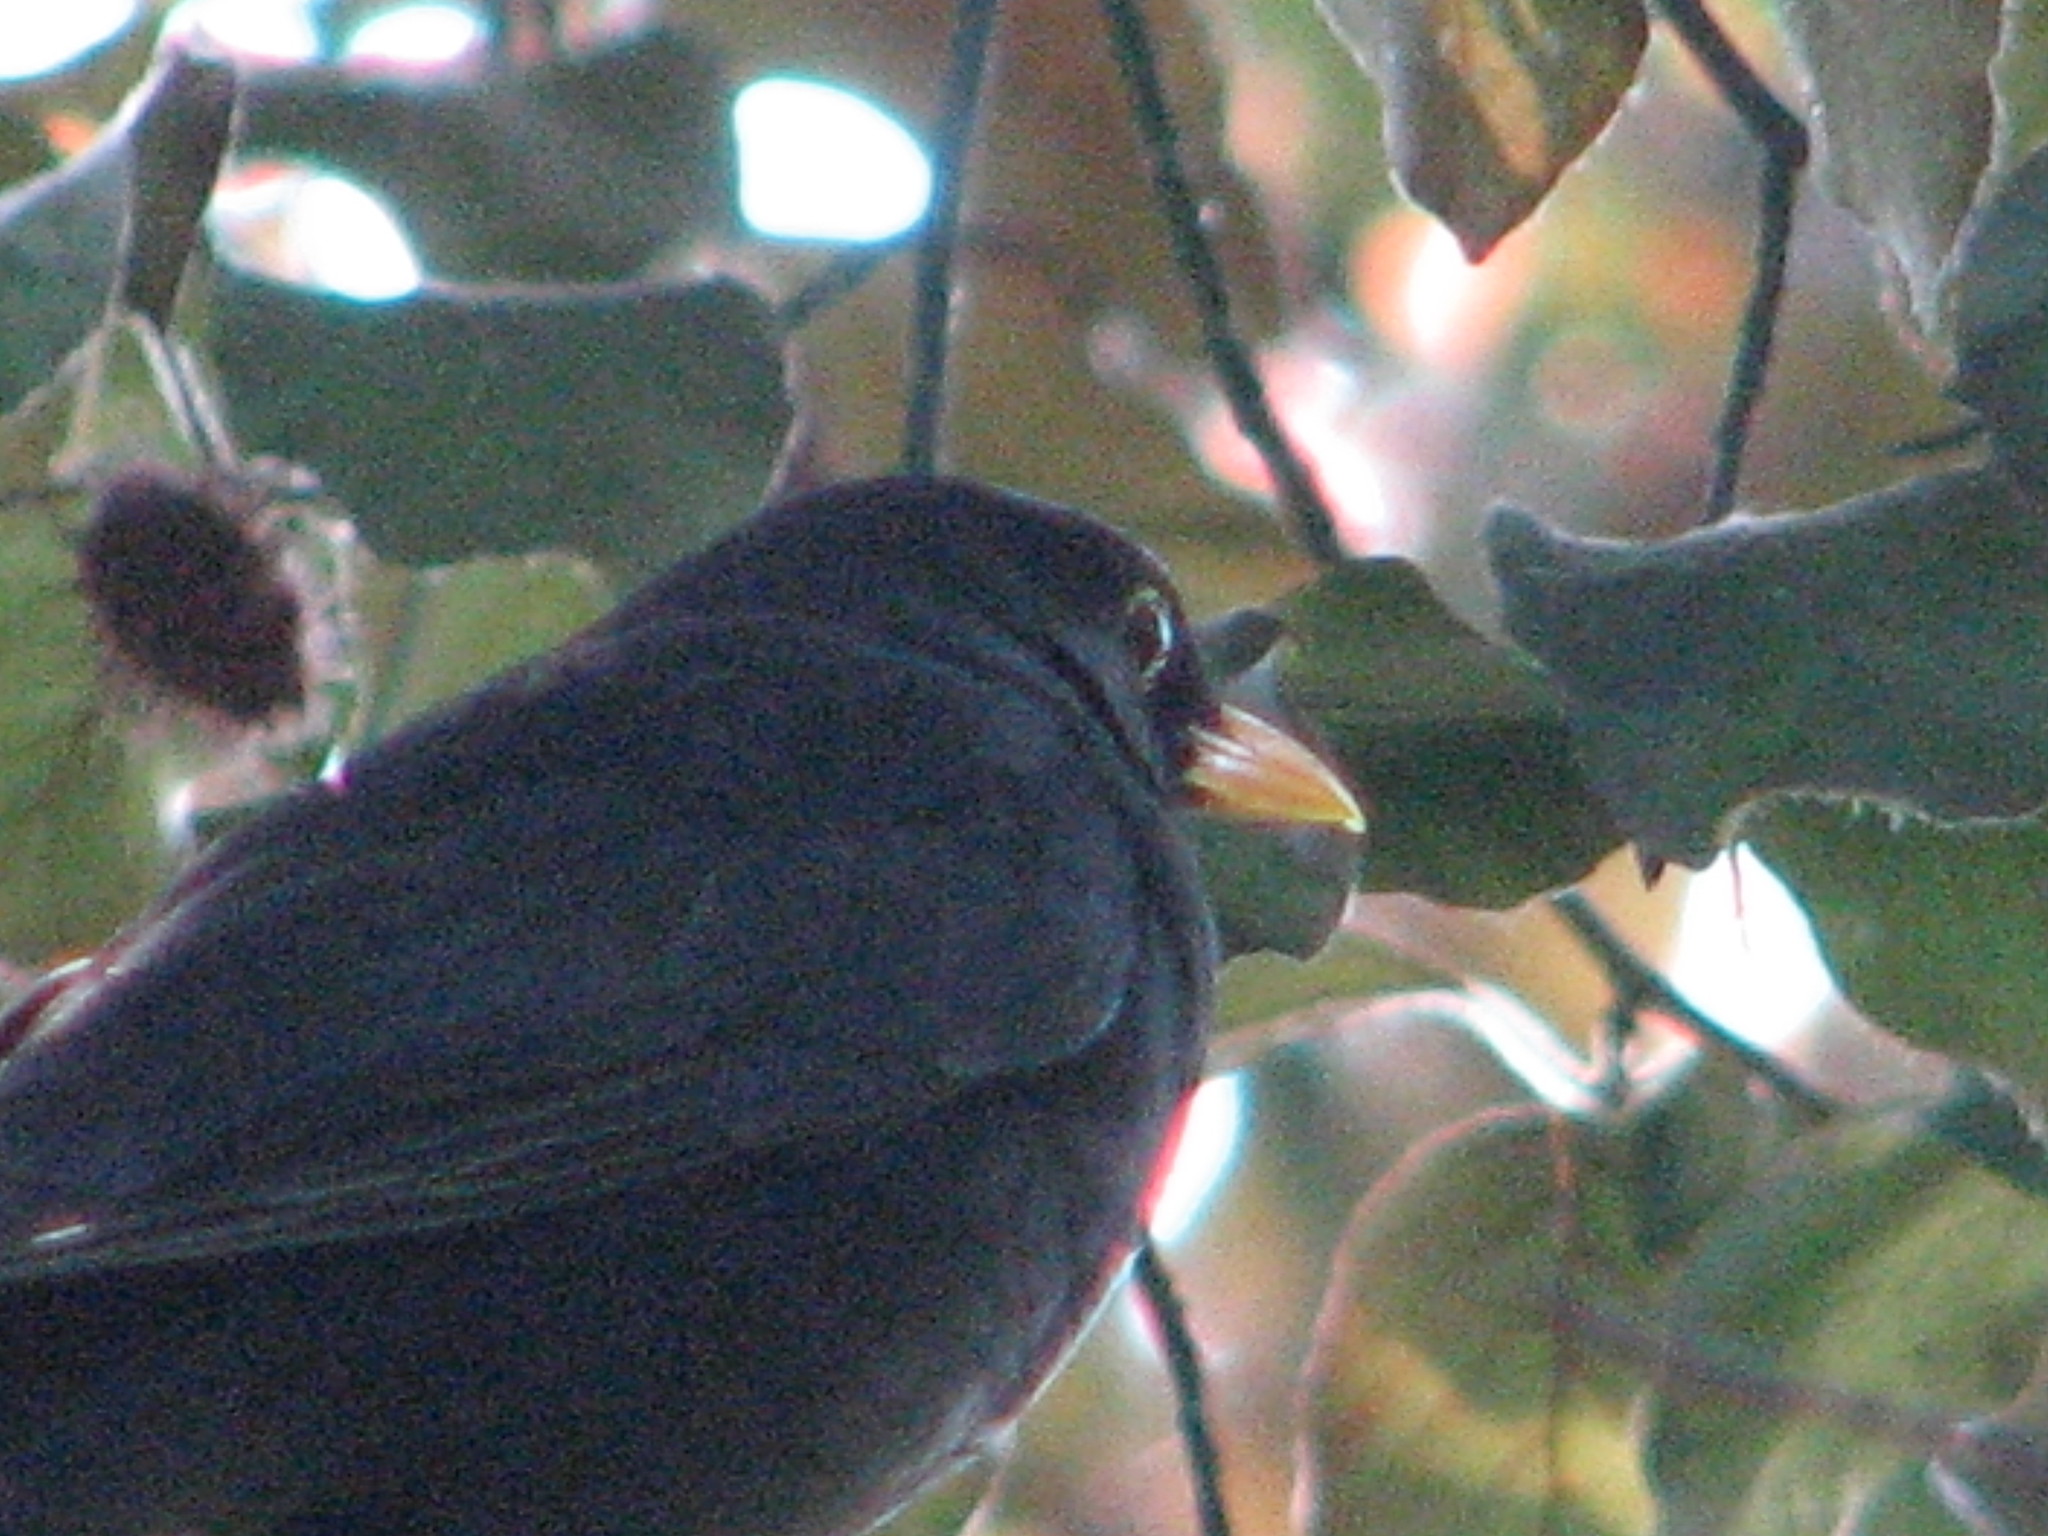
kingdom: Animalia
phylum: Chordata
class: Aves
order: Passeriformes
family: Turdidae
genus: Turdus
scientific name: Turdus merula
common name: Common blackbird
